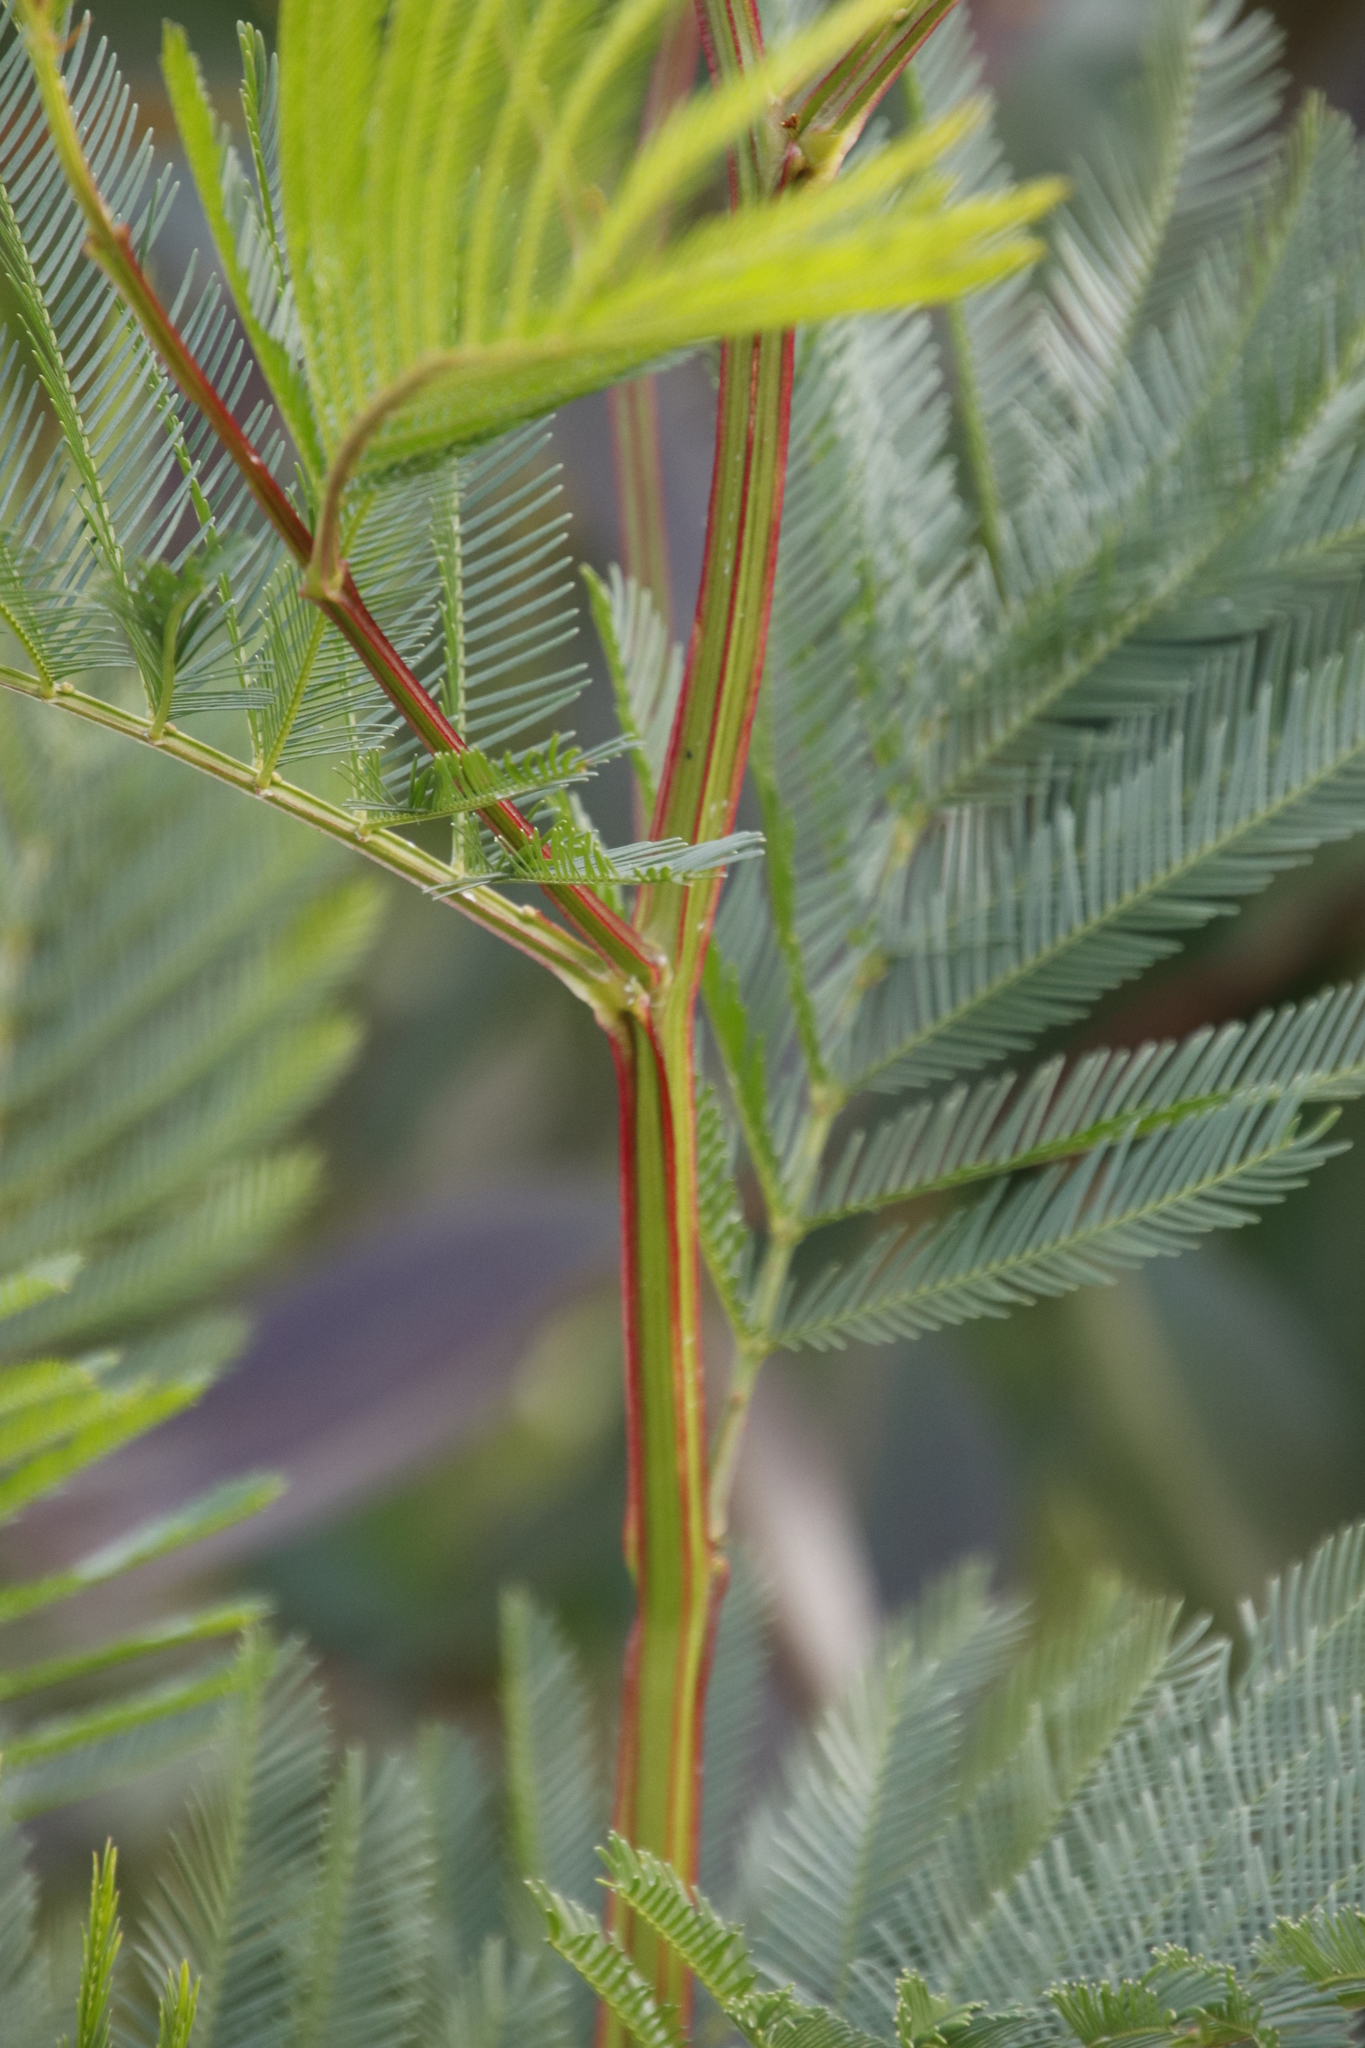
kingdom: Plantae
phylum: Tracheophyta
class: Magnoliopsida
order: Fabales
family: Fabaceae
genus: Acacia
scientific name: Acacia decurrens
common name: Green wattle
